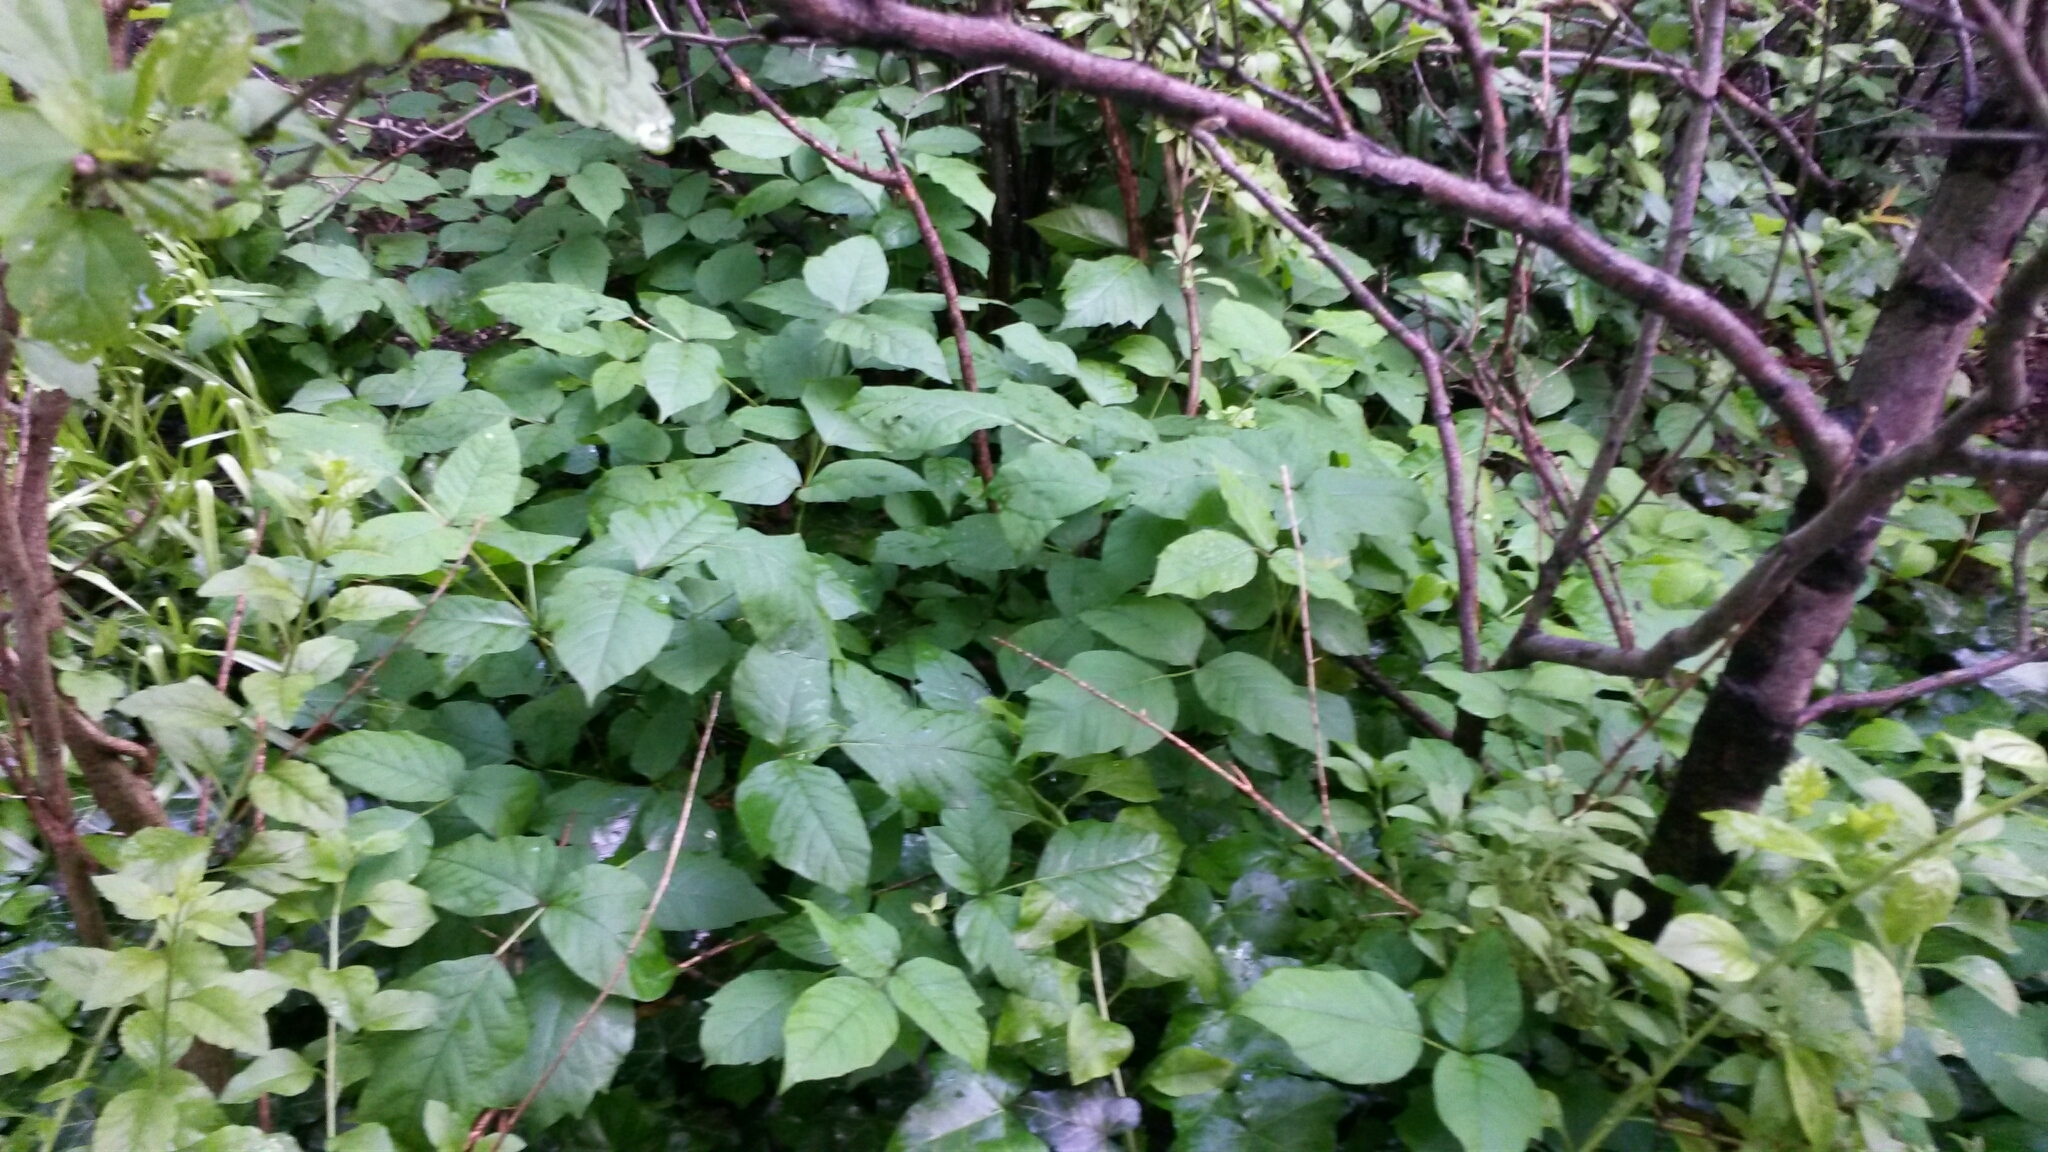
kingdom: Plantae
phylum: Tracheophyta
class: Magnoliopsida
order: Sapindales
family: Anacardiaceae
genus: Toxicodendron
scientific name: Toxicodendron radicans
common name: Poison ivy
